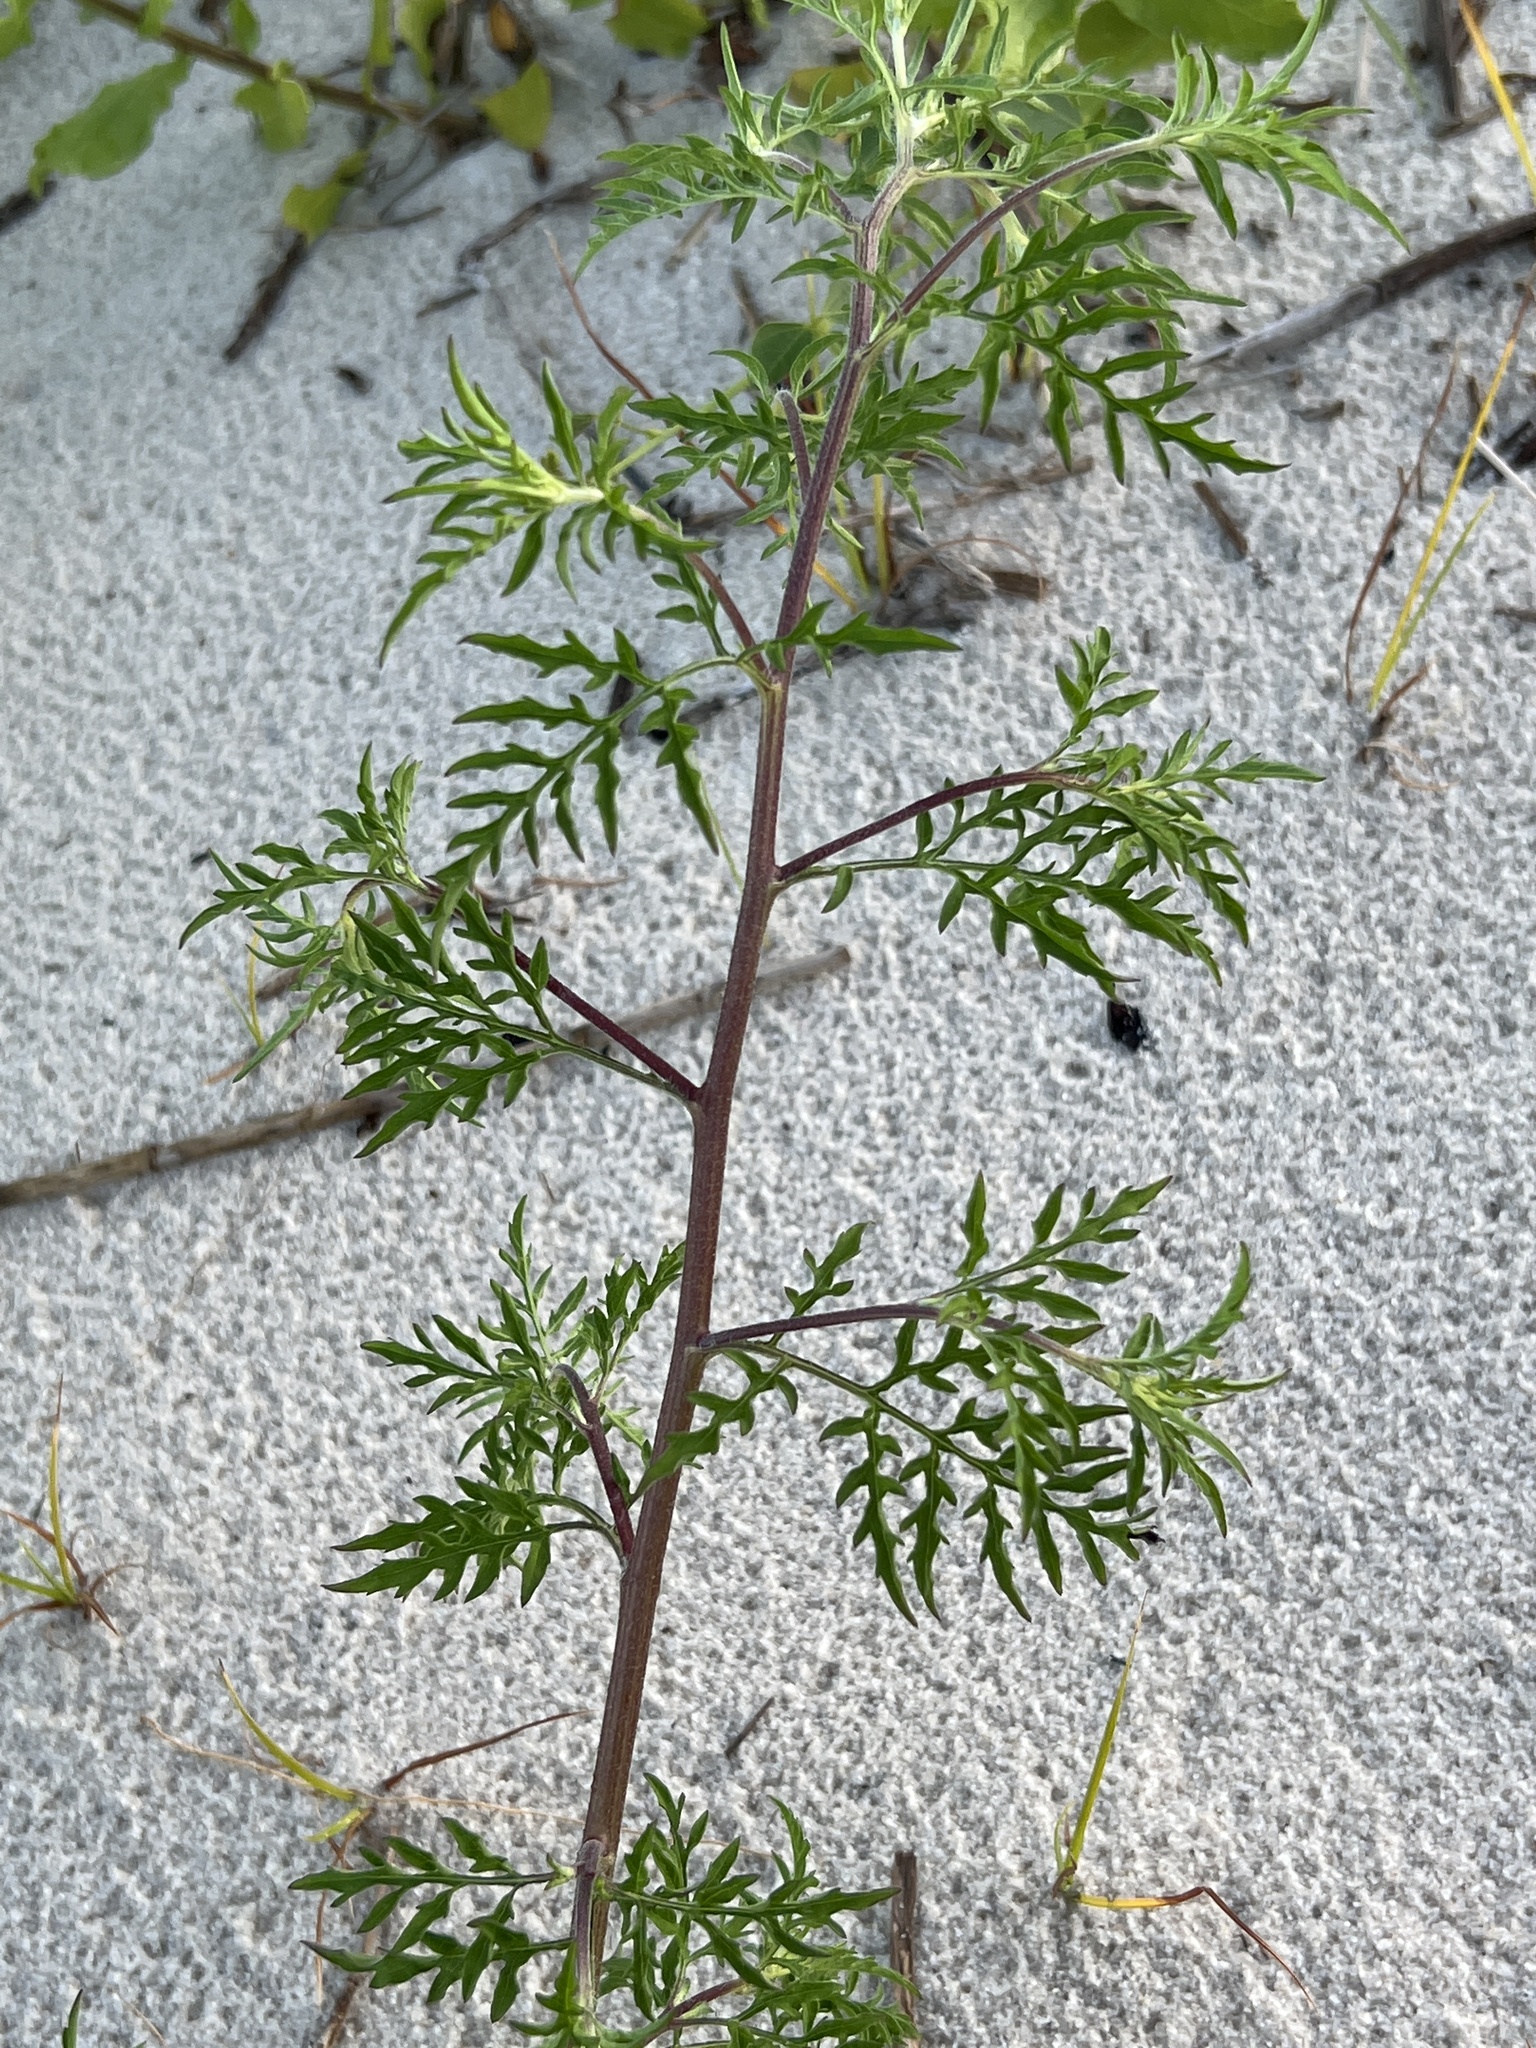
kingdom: Plantae
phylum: Tracheophyta
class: Magnoliopsida
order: Asterales
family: Asteraceae
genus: Ambrosia
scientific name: Ambrosia artemisiifolia
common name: Annual ragweed
